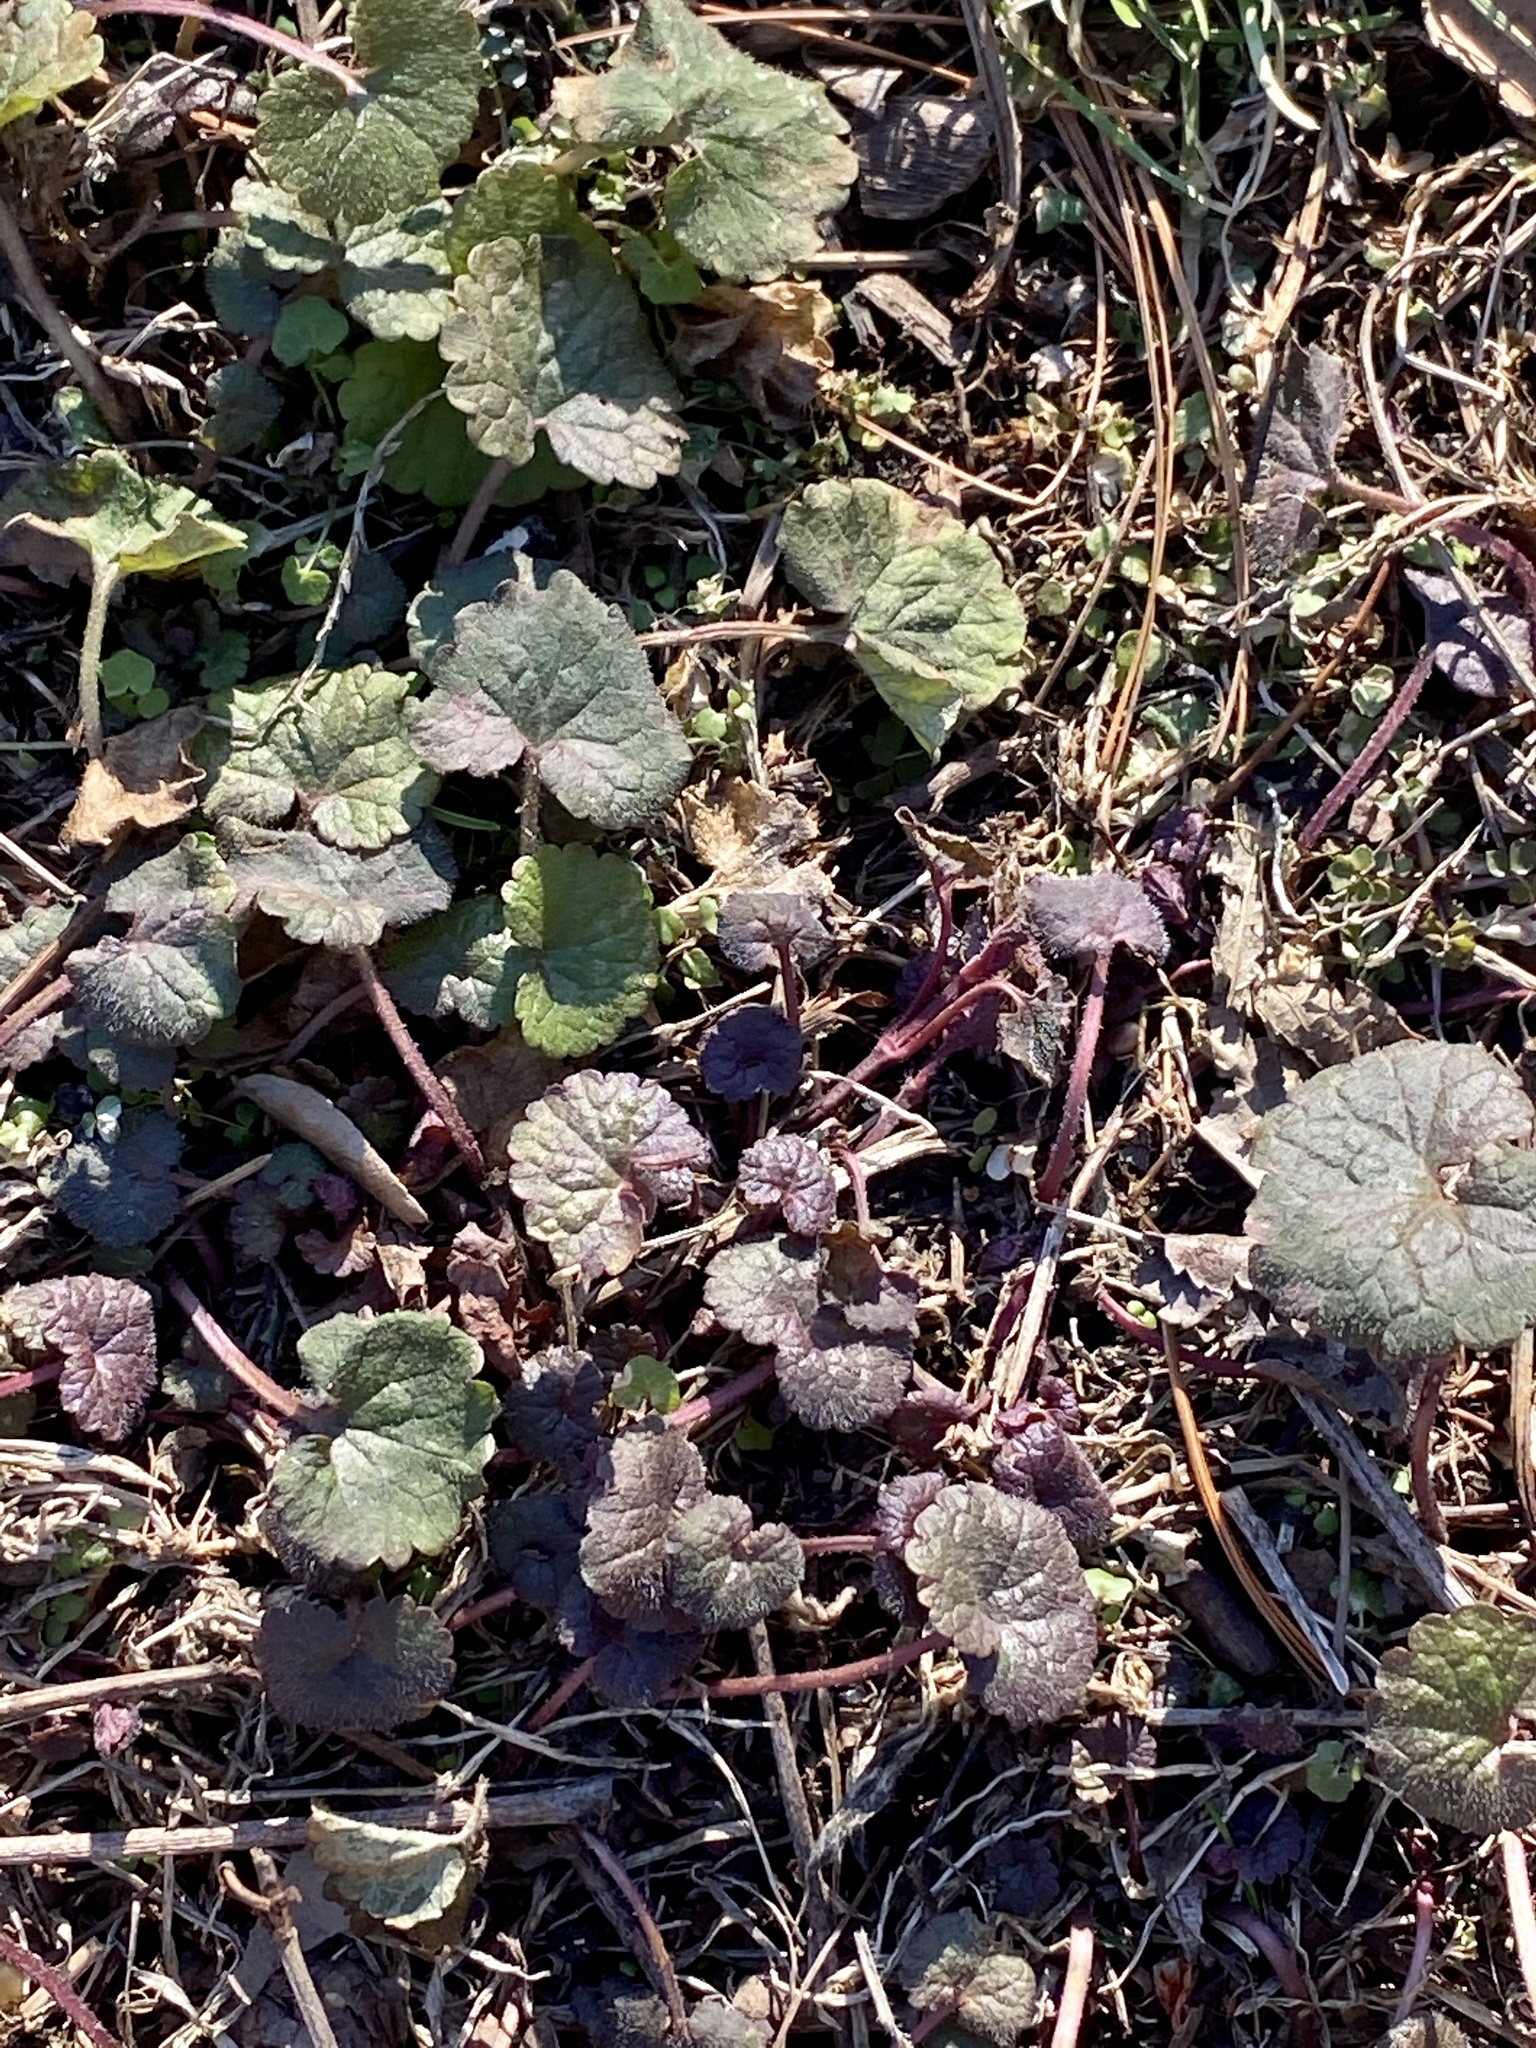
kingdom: Plantae
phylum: Tracheophyta
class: Magnoliopsida
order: Lamiales
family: Lamiaceae
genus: Glechoma
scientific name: Glechoma hederacea
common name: Ground ivy
